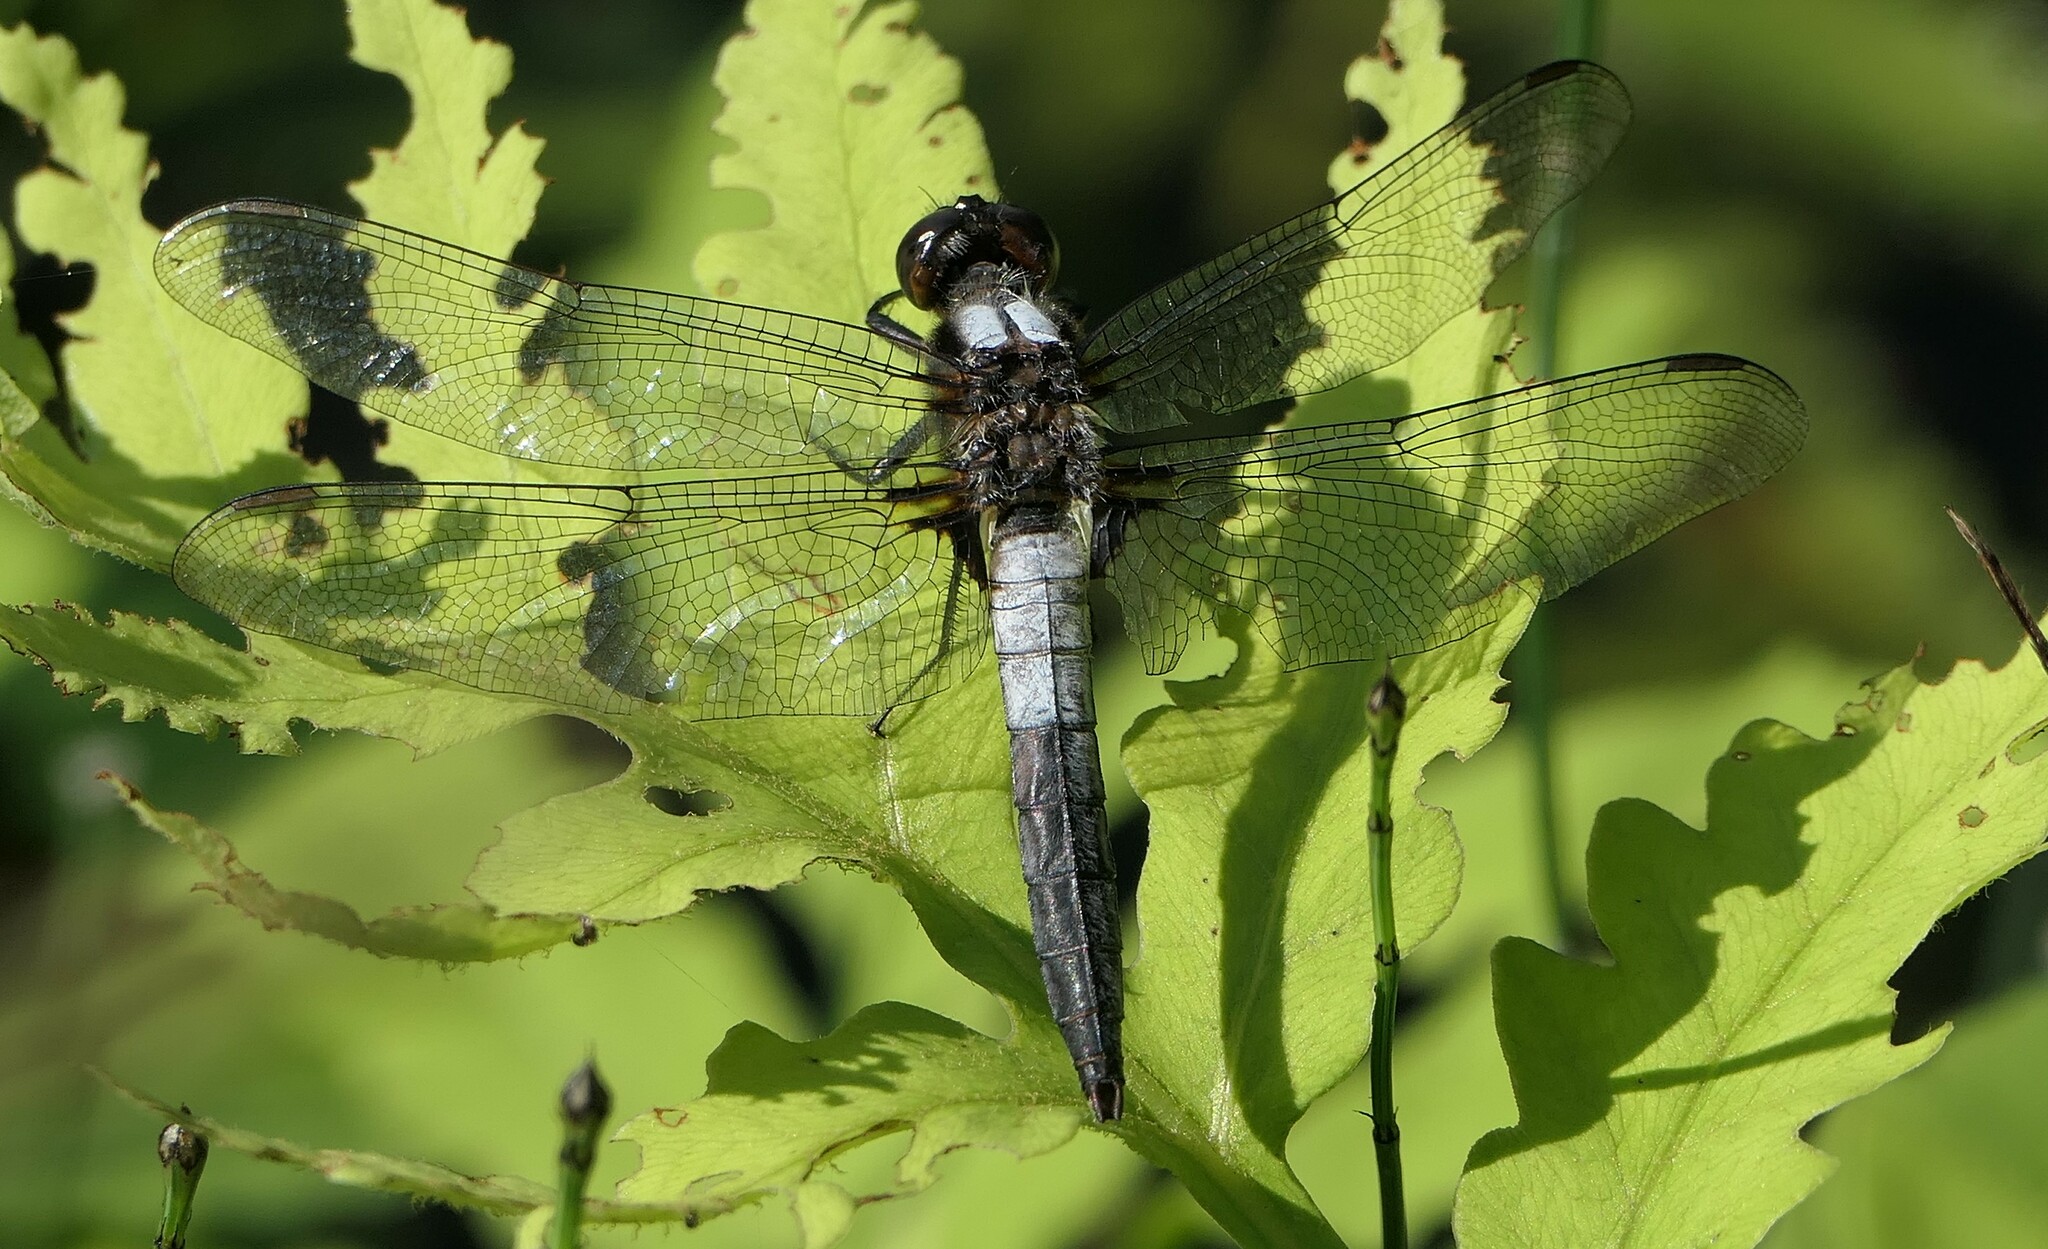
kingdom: Animalia
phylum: Arthropoda
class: Insecta
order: Odonata
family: Libellulidae
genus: Ladona
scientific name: Ladona julia
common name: Chalk-fronted corporal
